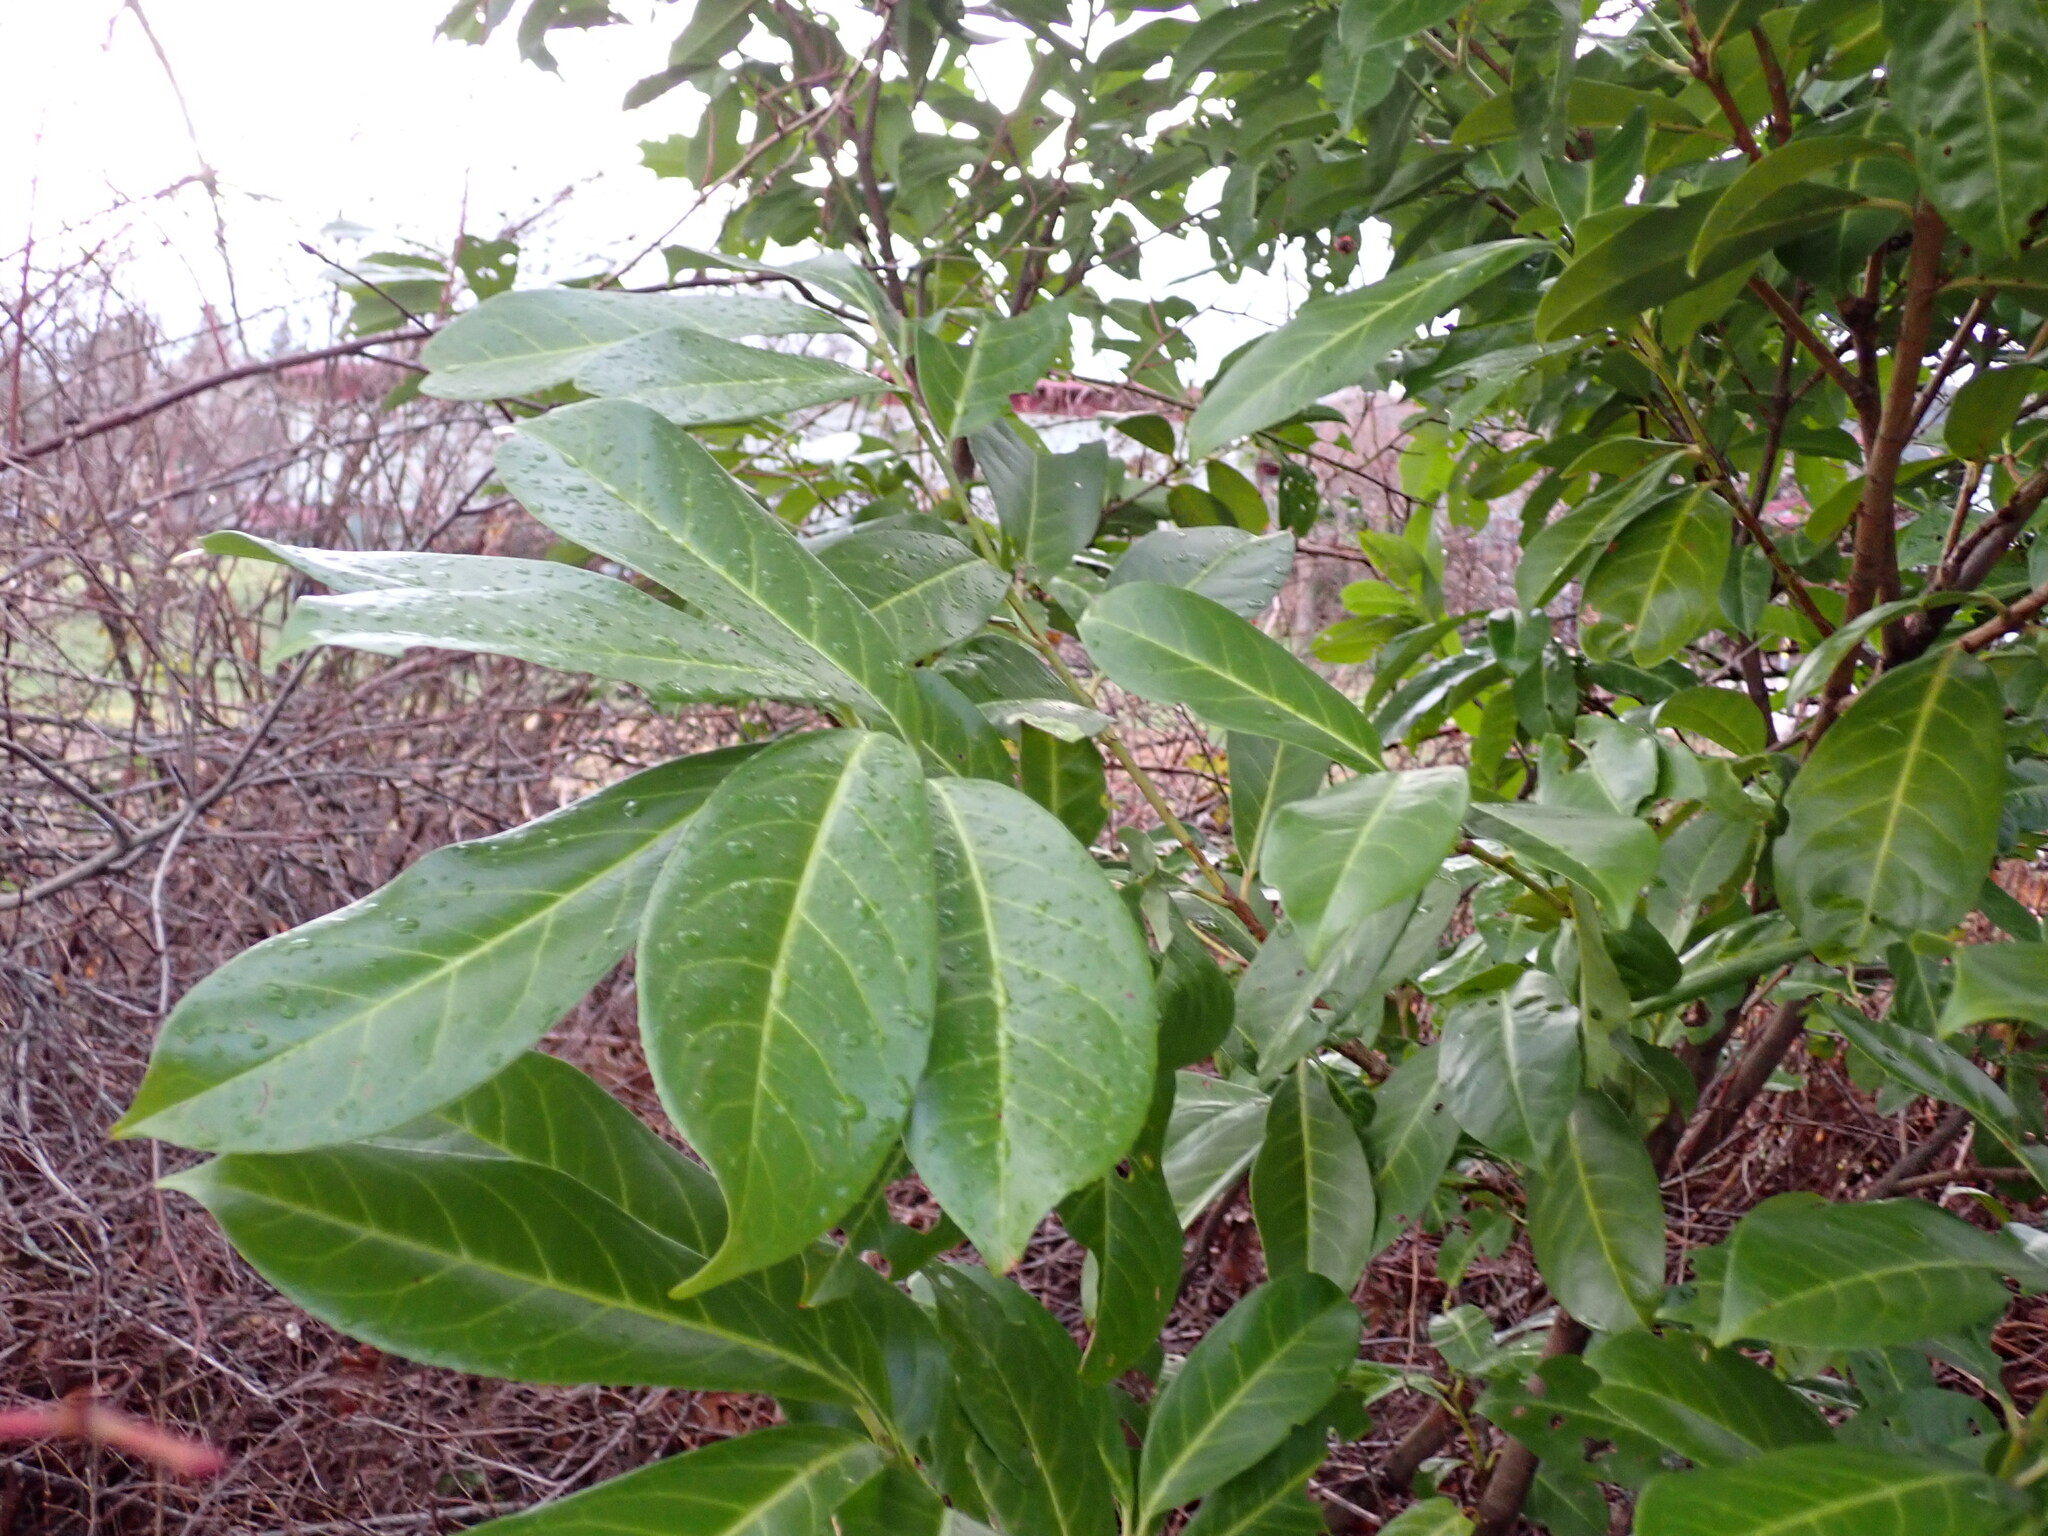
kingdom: Plantae
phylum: Tracheophyta
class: Magnoliopsida
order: Rosales
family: Rosaceae
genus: Prunus
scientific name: Prunus laurocerasus
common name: Cherry laurel
